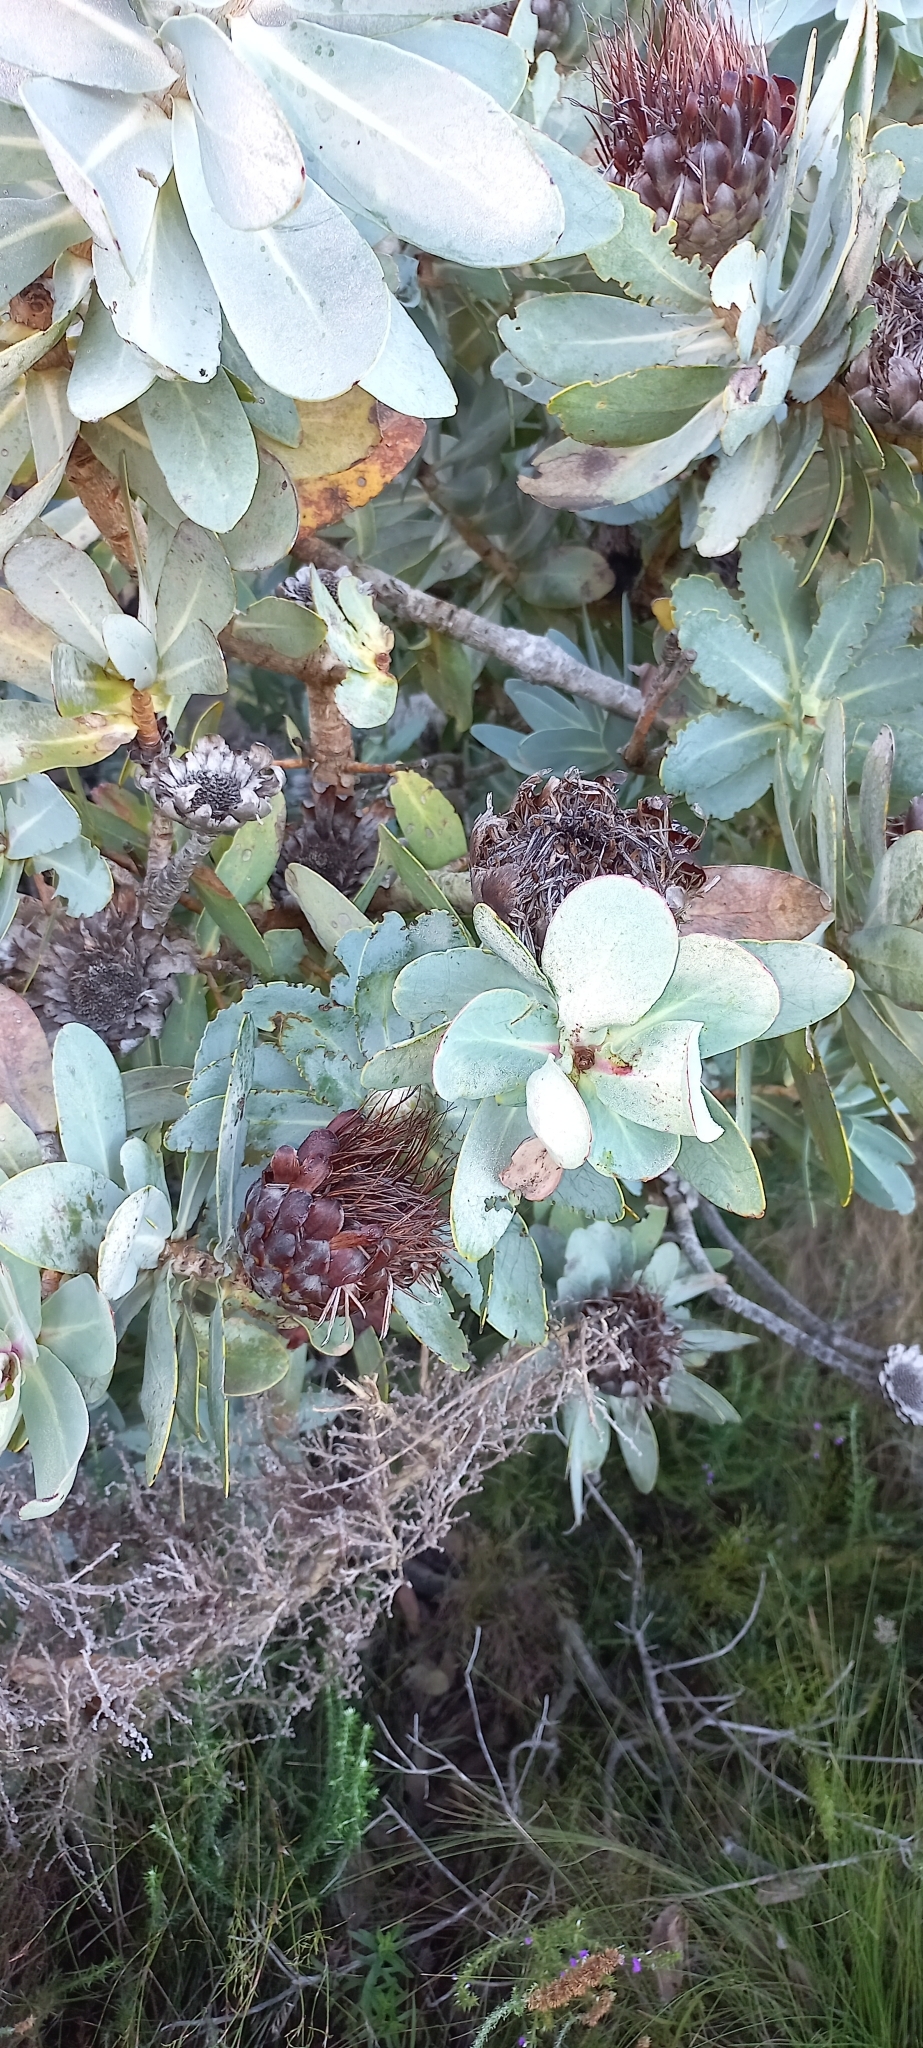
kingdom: Plantae
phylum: Tracheophyta
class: Magnoliopsida
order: Proteales
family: Proteaceae
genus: Protea
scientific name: Protea nitida
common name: Tree protea
